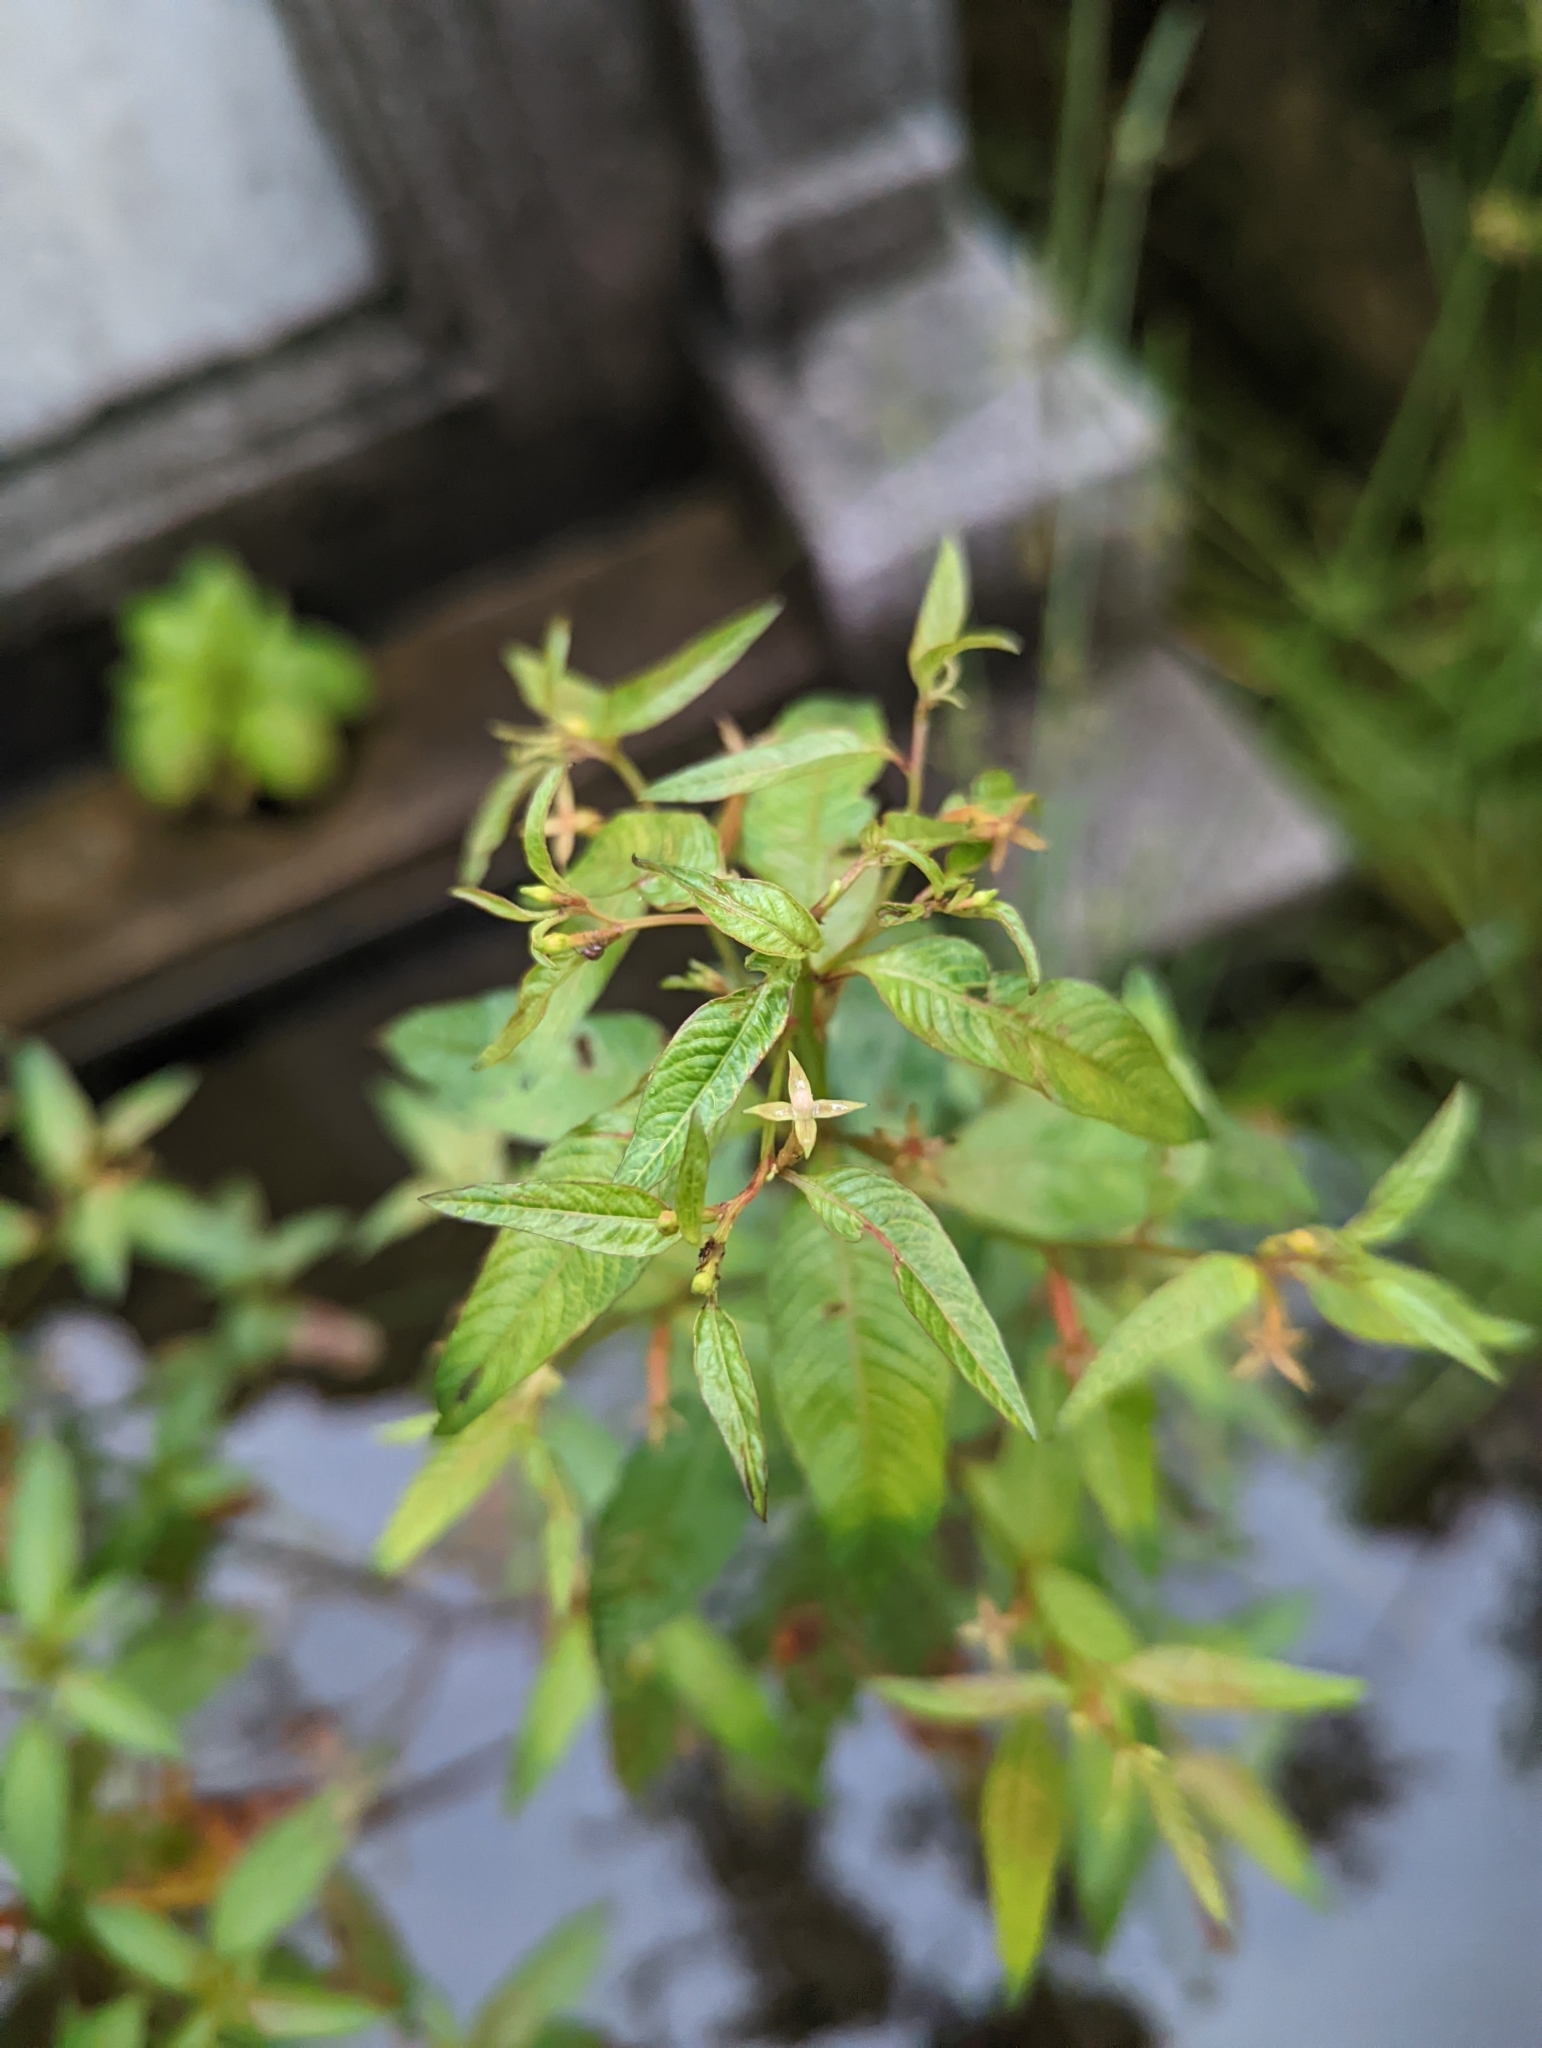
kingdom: Plantae
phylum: Tracheophyta
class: Magnoliopsida
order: Myrtales
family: Onagraceae
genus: Ludwigia
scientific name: Ludwigia hyssopifolia
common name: Linear leaf water primrose
